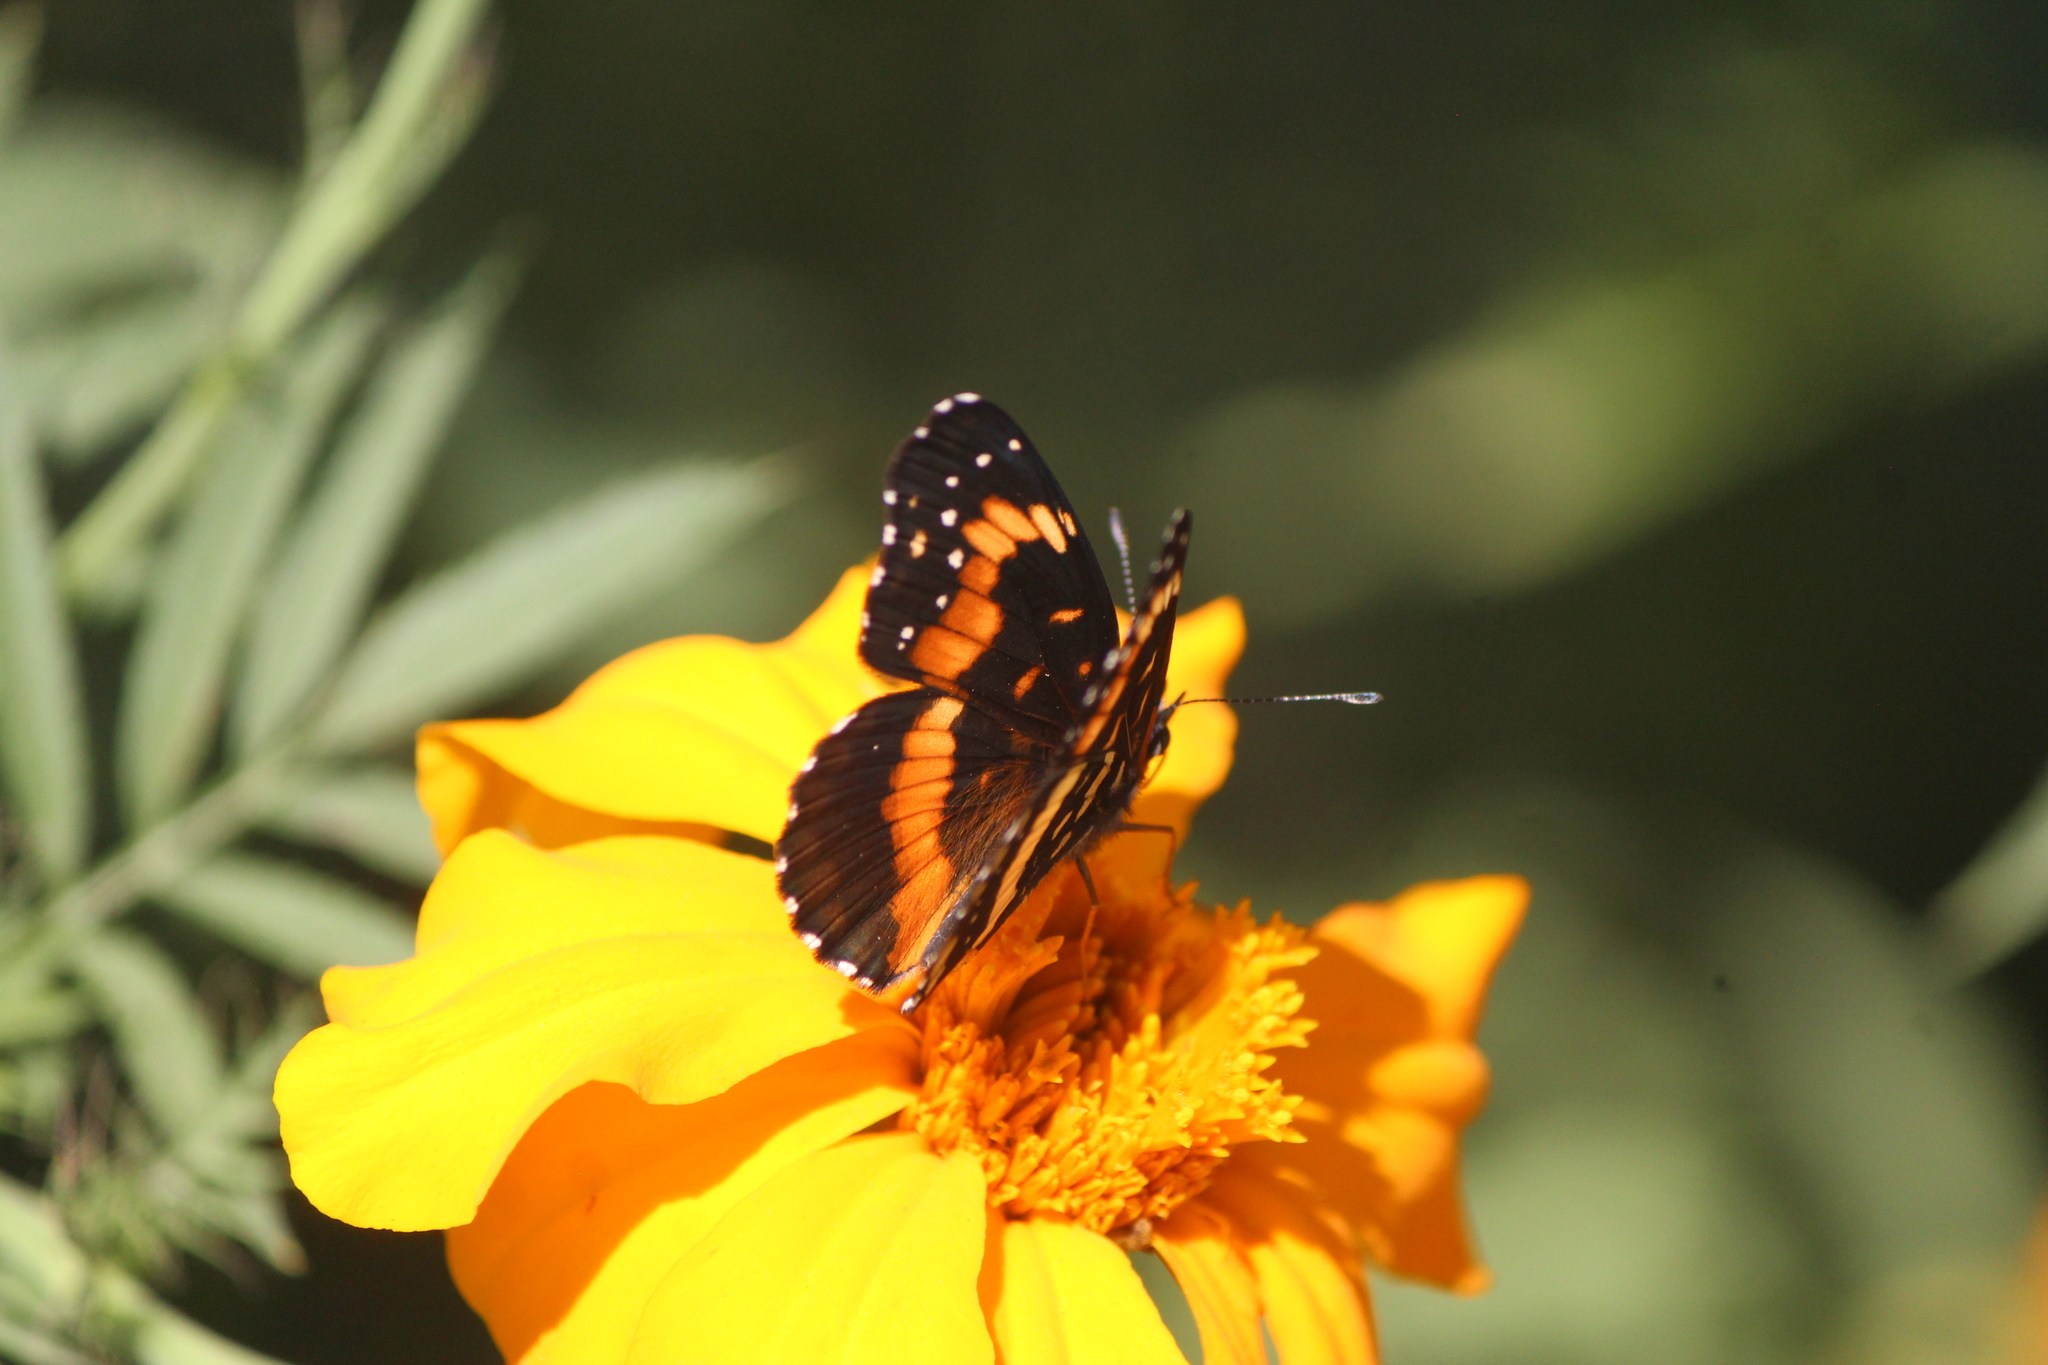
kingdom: Animalia
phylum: Arthropoda
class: Insecta
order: Lepidoptera
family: Nymphalidae
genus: Chlosyne
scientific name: Chlosyne lacinia
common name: Bordered patch
